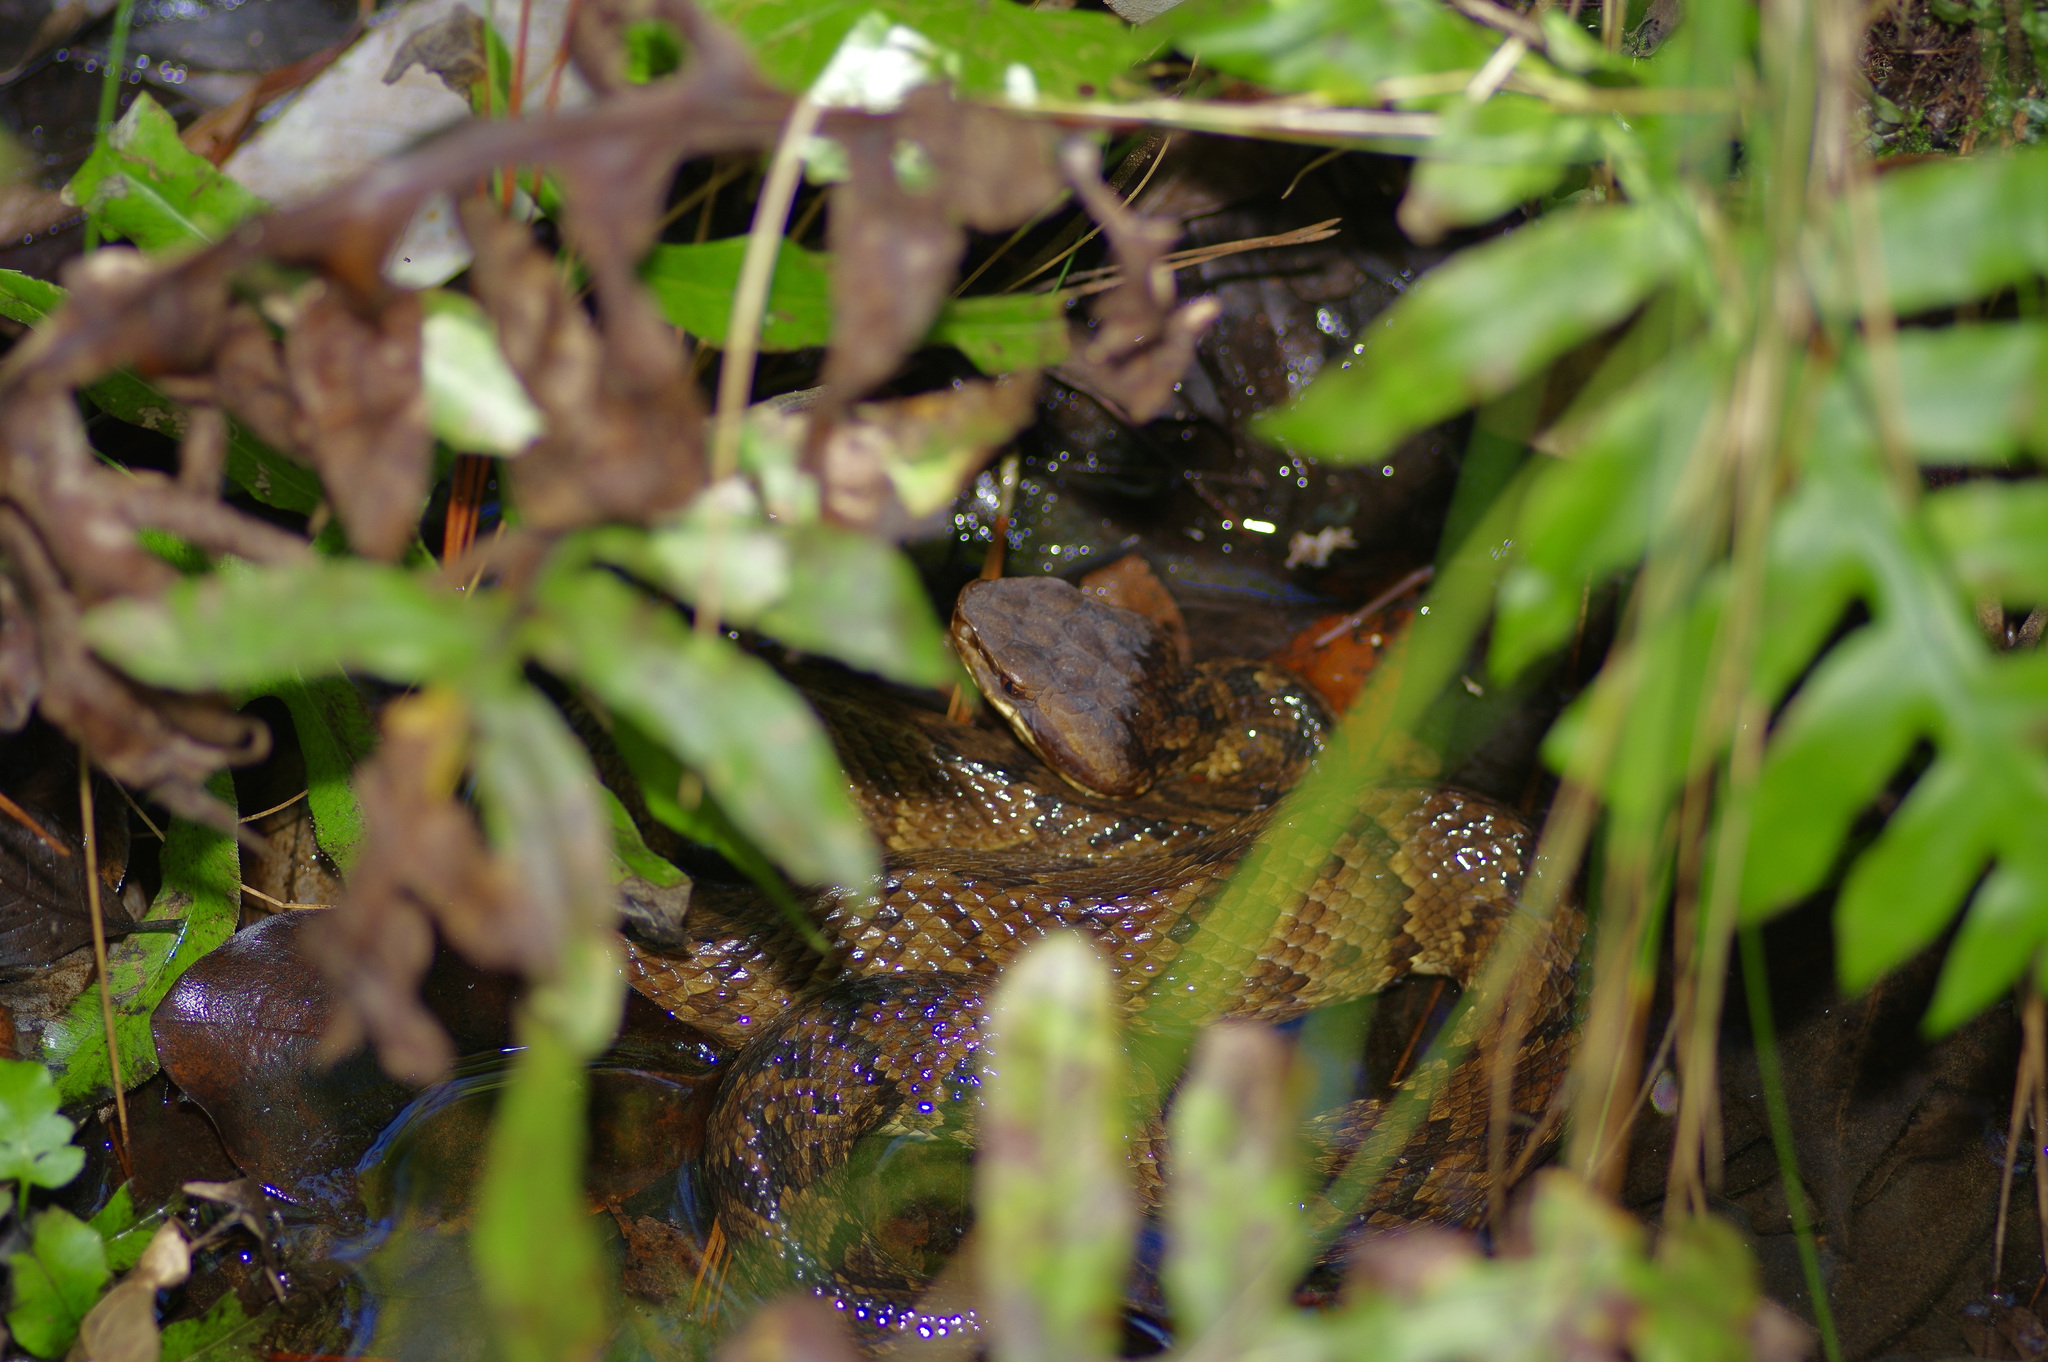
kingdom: Animalia
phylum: Chordata
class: Squamata
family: Viperidae
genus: Agkistrodon
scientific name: Agkistrodon piscivorus
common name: Cottonmouth
